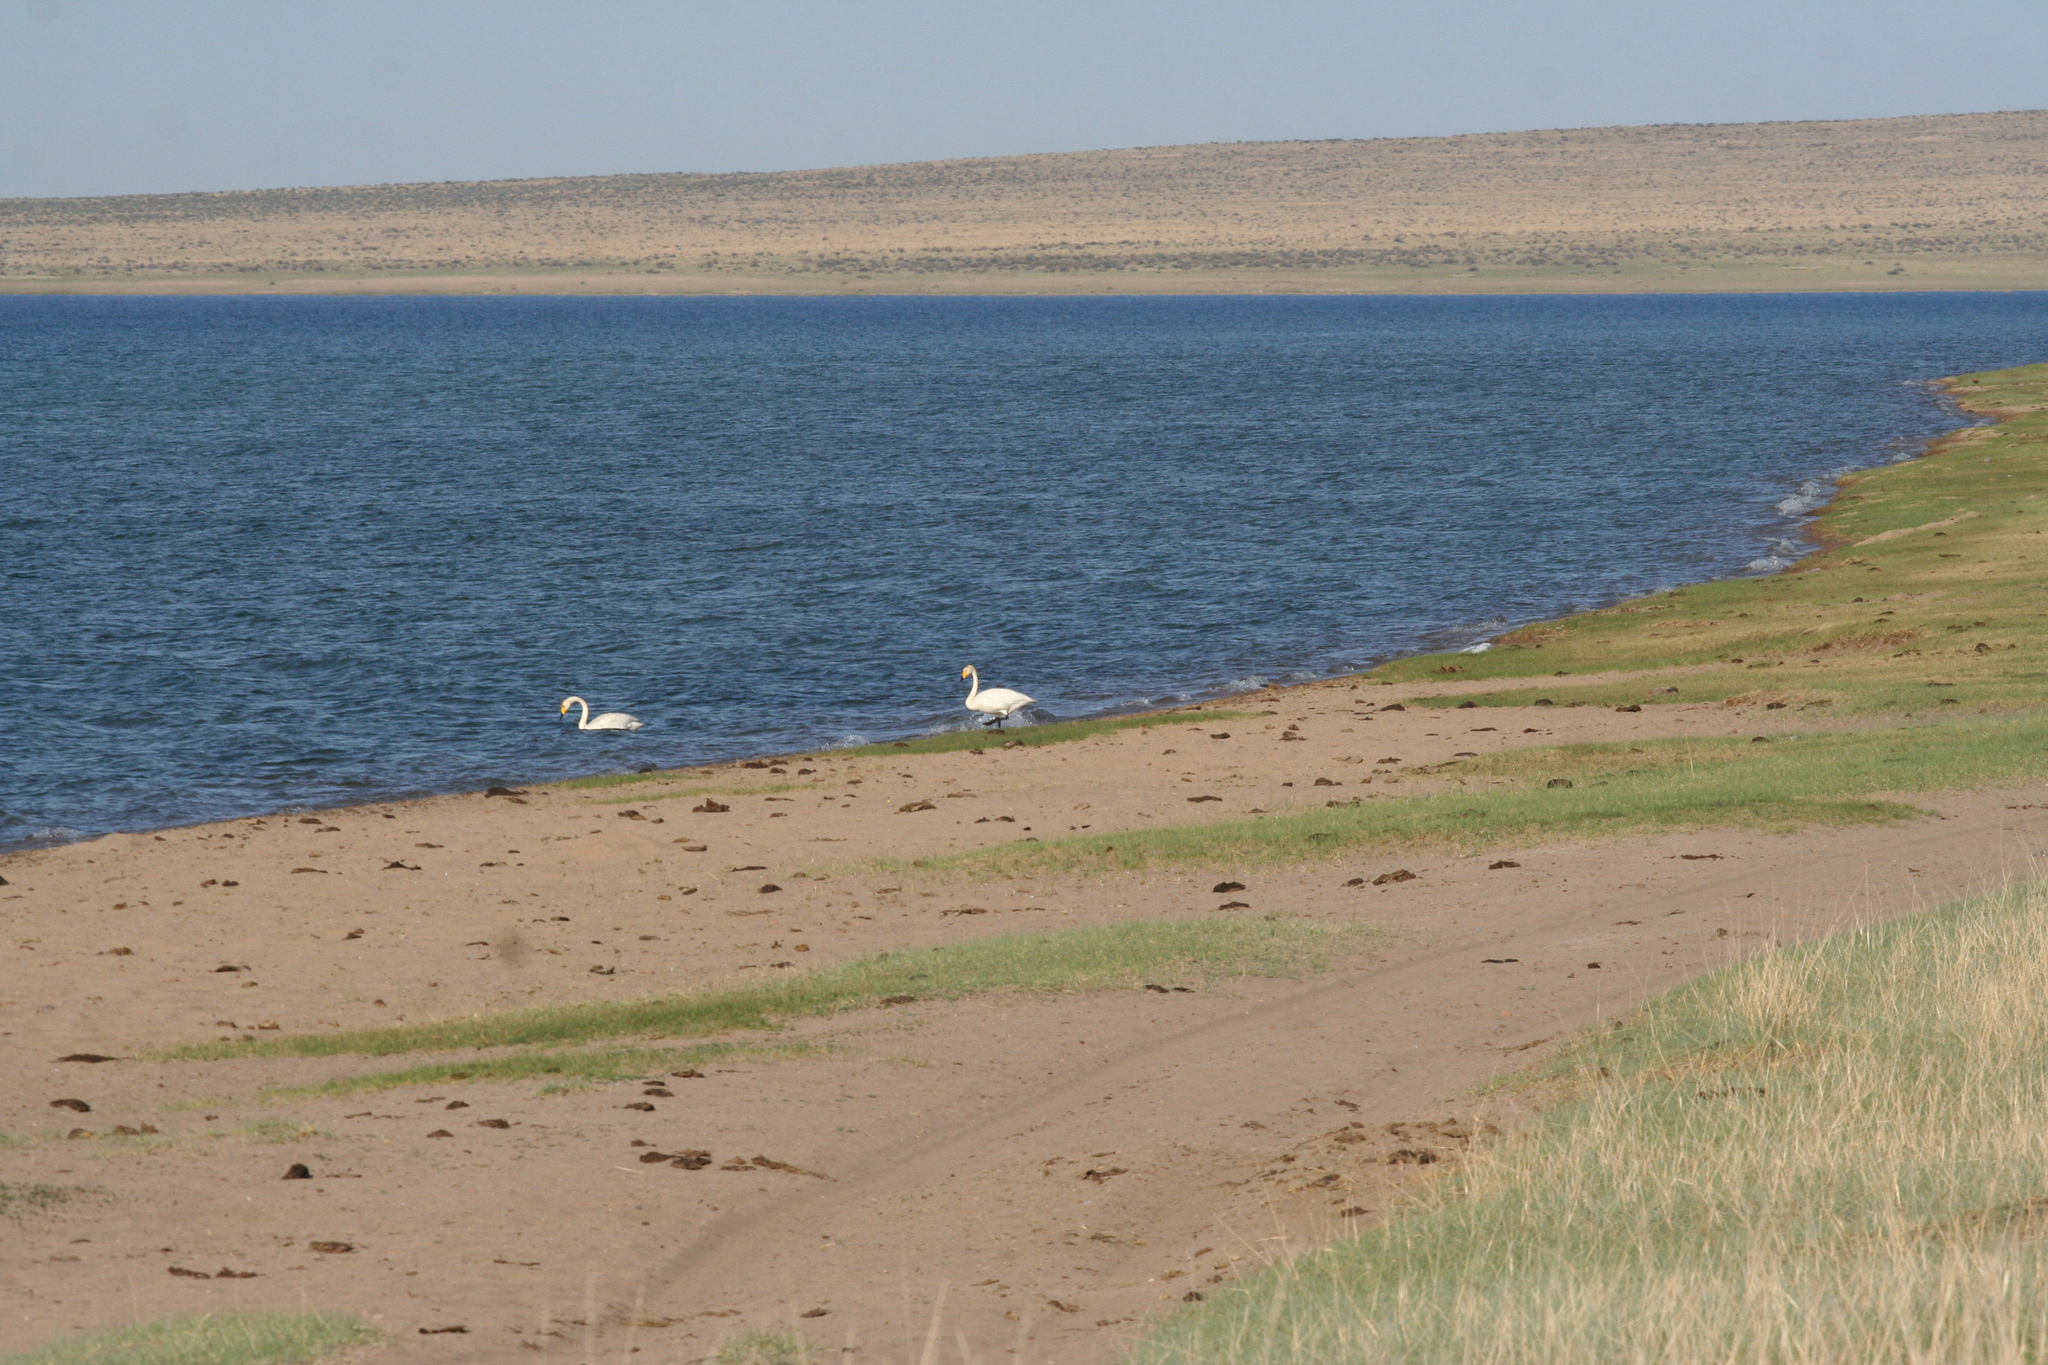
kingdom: Animalia
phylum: Chordata
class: Aves
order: Anseriformes
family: Anatidae
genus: Cygnus
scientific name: Cygnus cygnus
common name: Whooper swan
